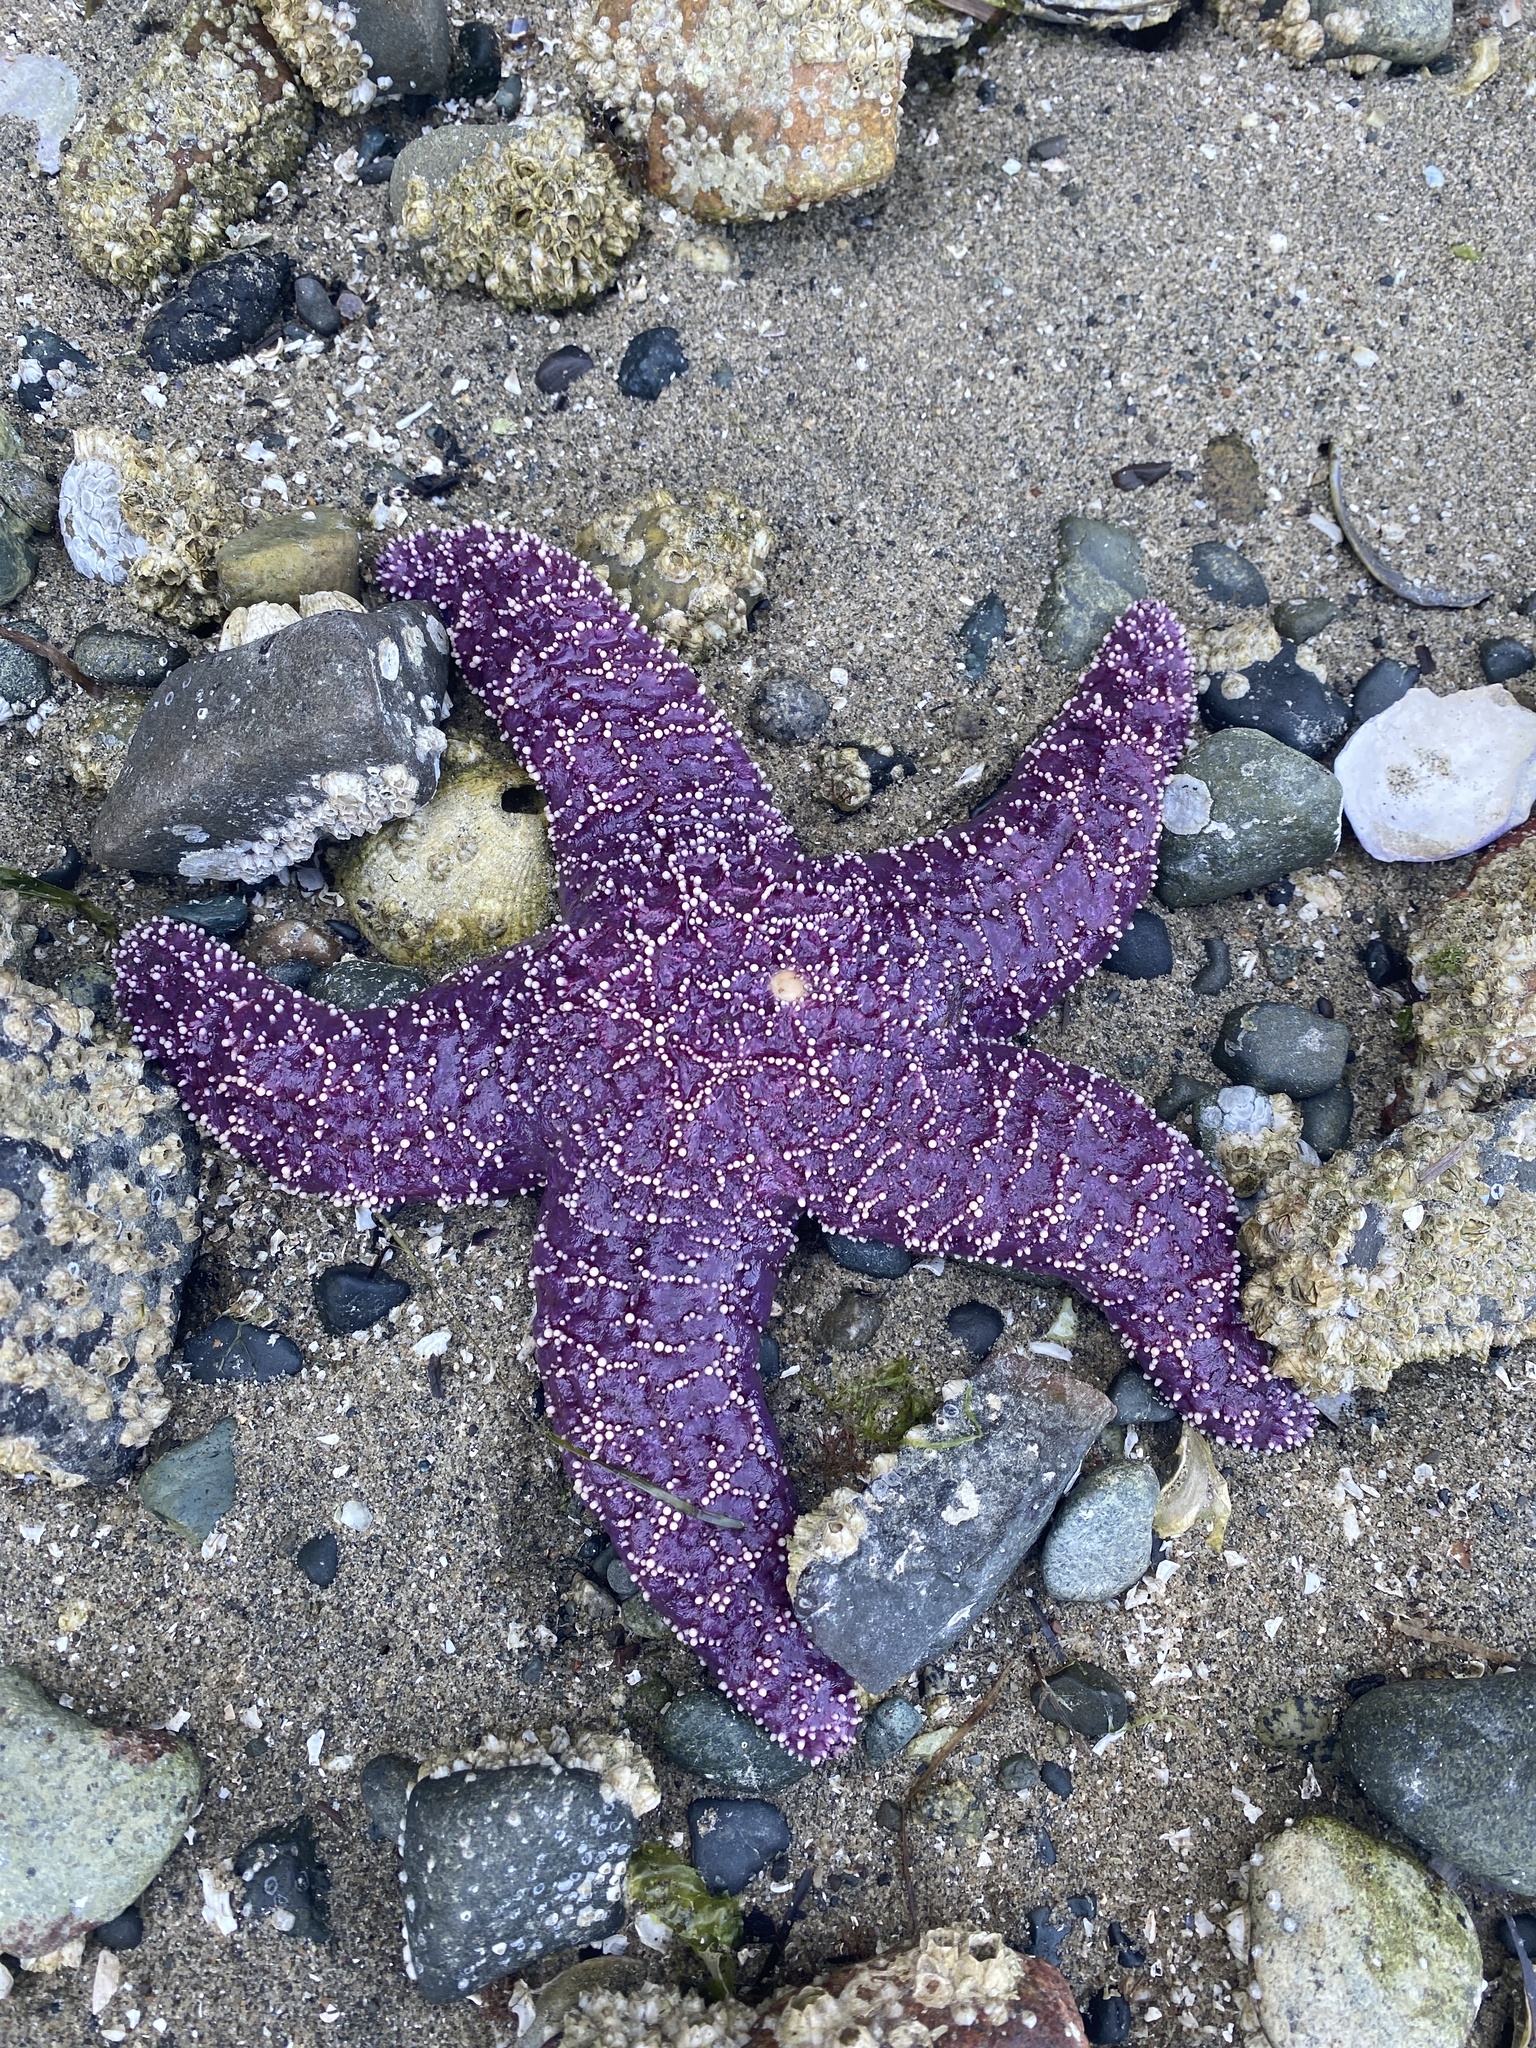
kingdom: Animalia
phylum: Echinodermata
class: Asteroidea
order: Forcipulatida
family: Asteriidae
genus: Pisaster
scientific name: Pisaster ochraceus
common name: Ochre stars
